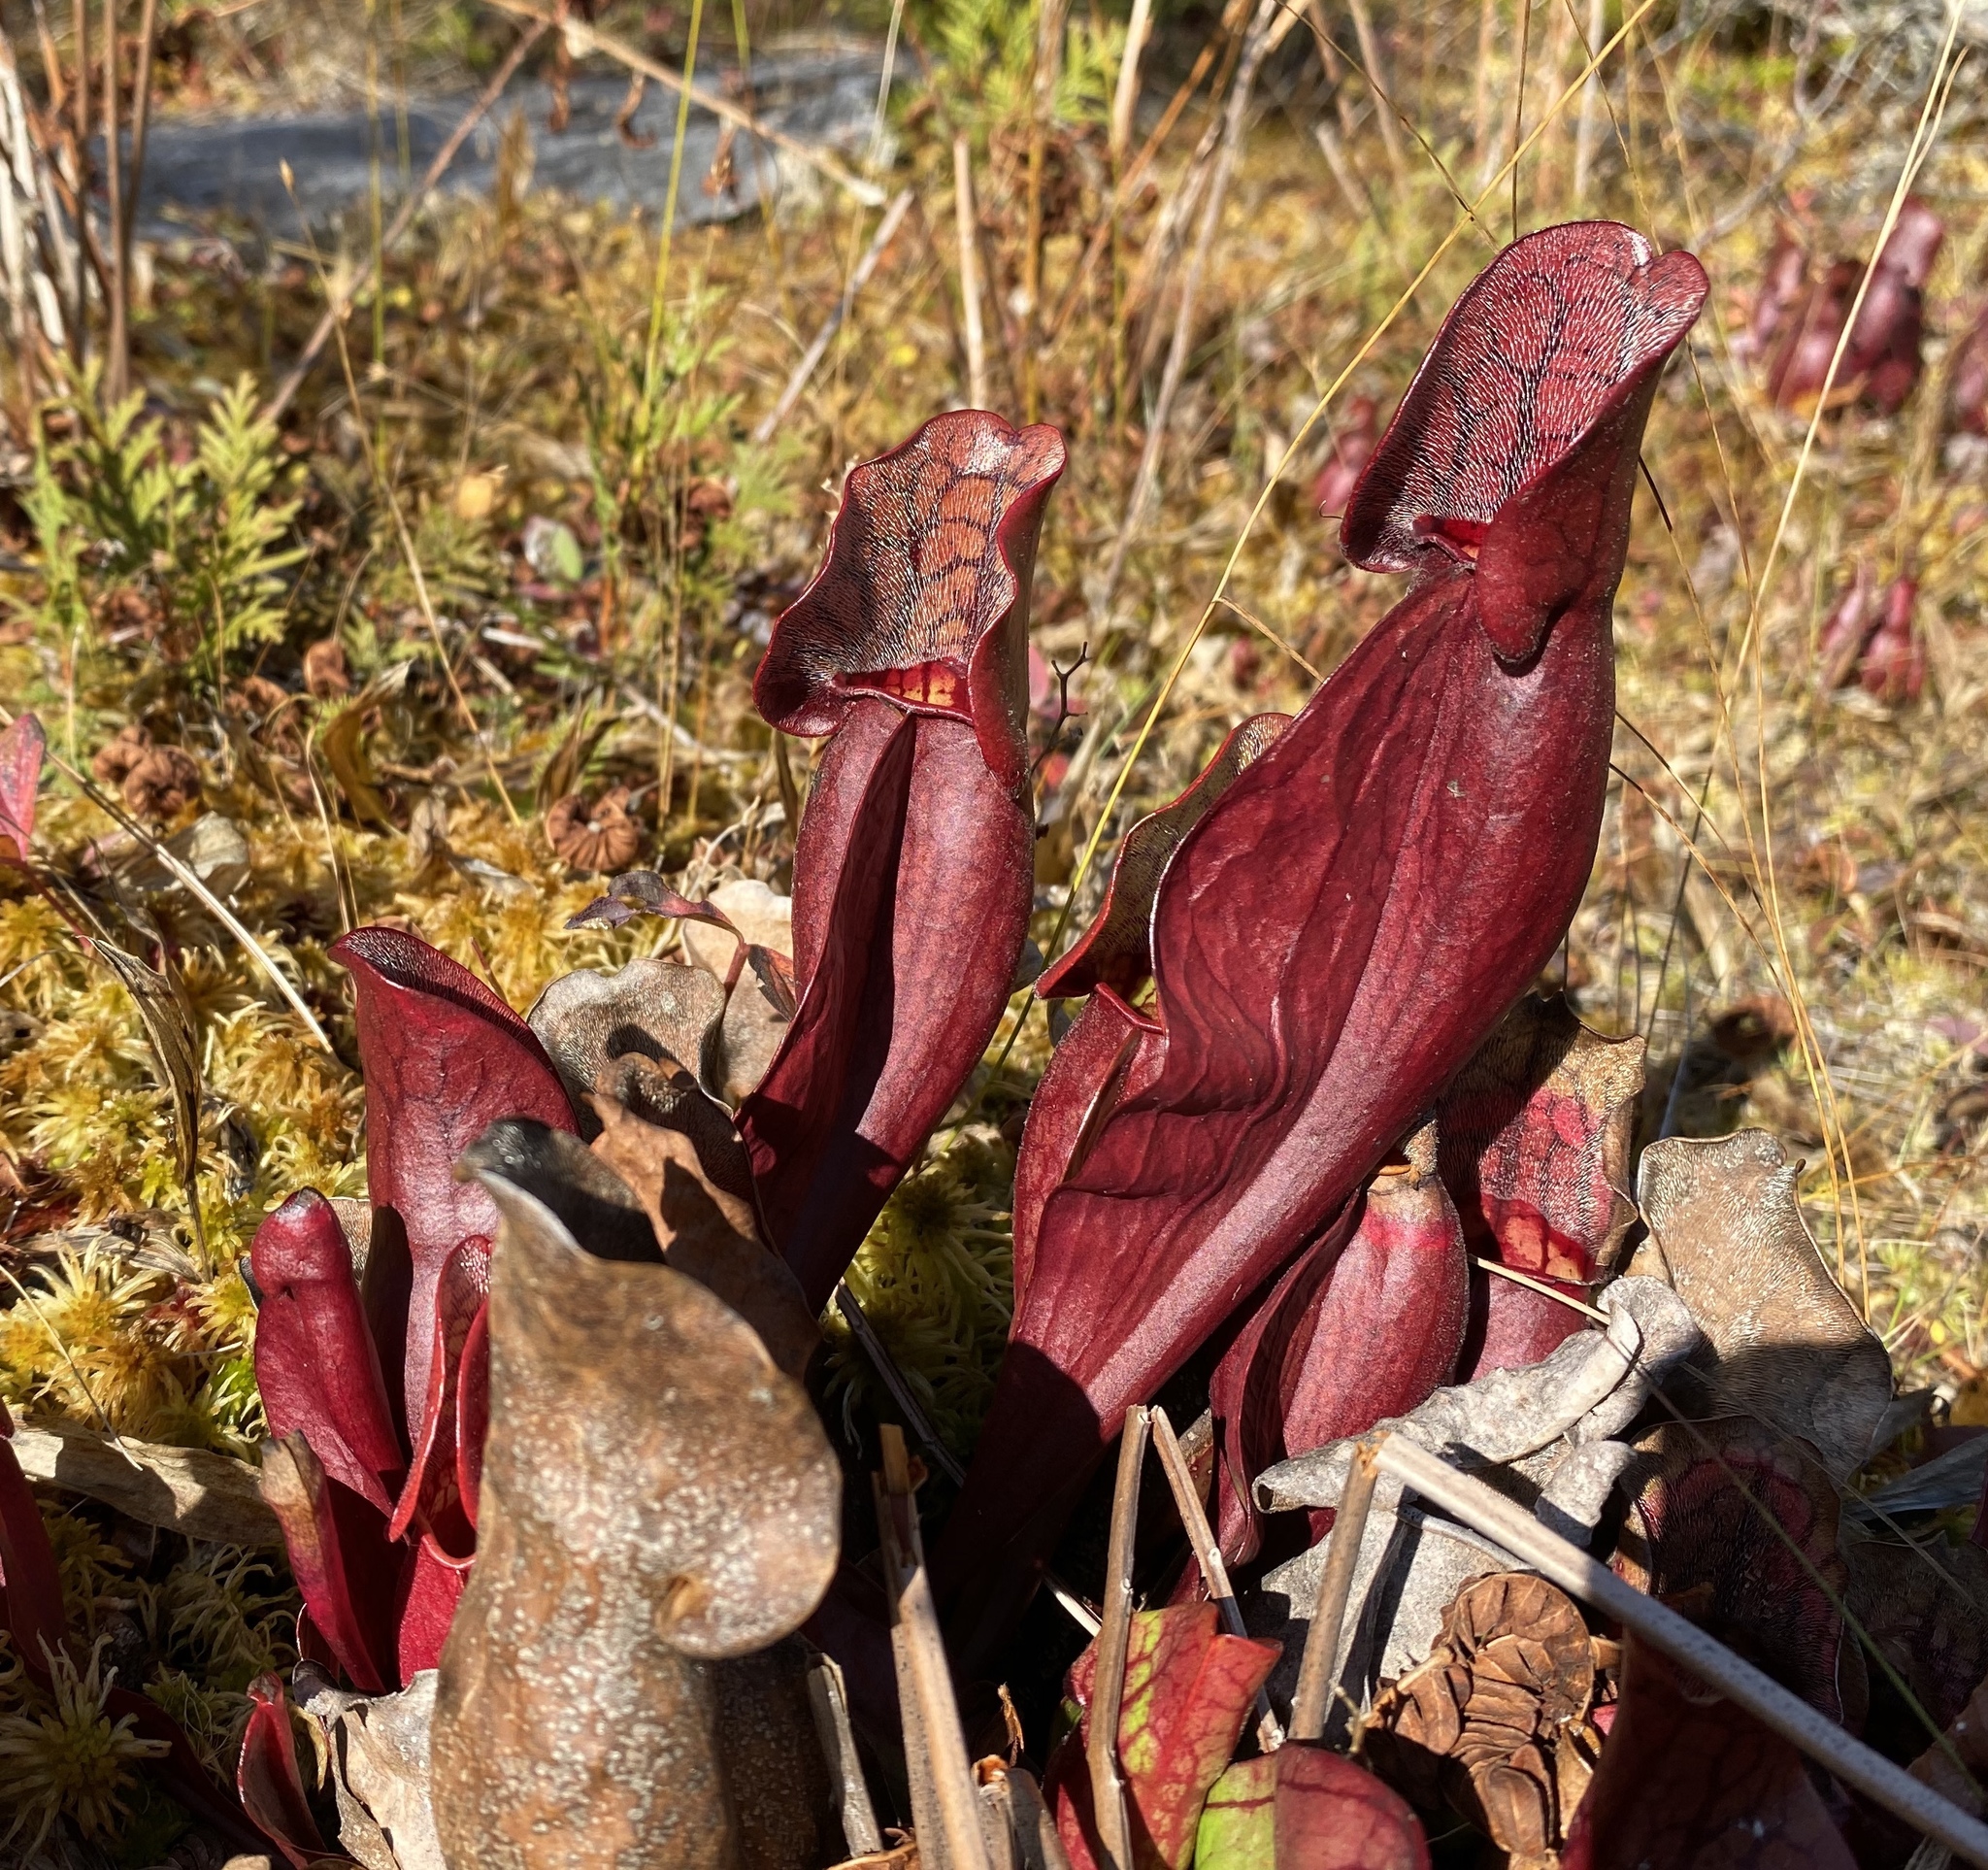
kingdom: Plantae
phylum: Tracheophyta
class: Magnoliopsida
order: Ericales
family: Sarraceniaceae
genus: Sarracenia
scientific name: Sarracenia purpurea
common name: Pitcherplant
